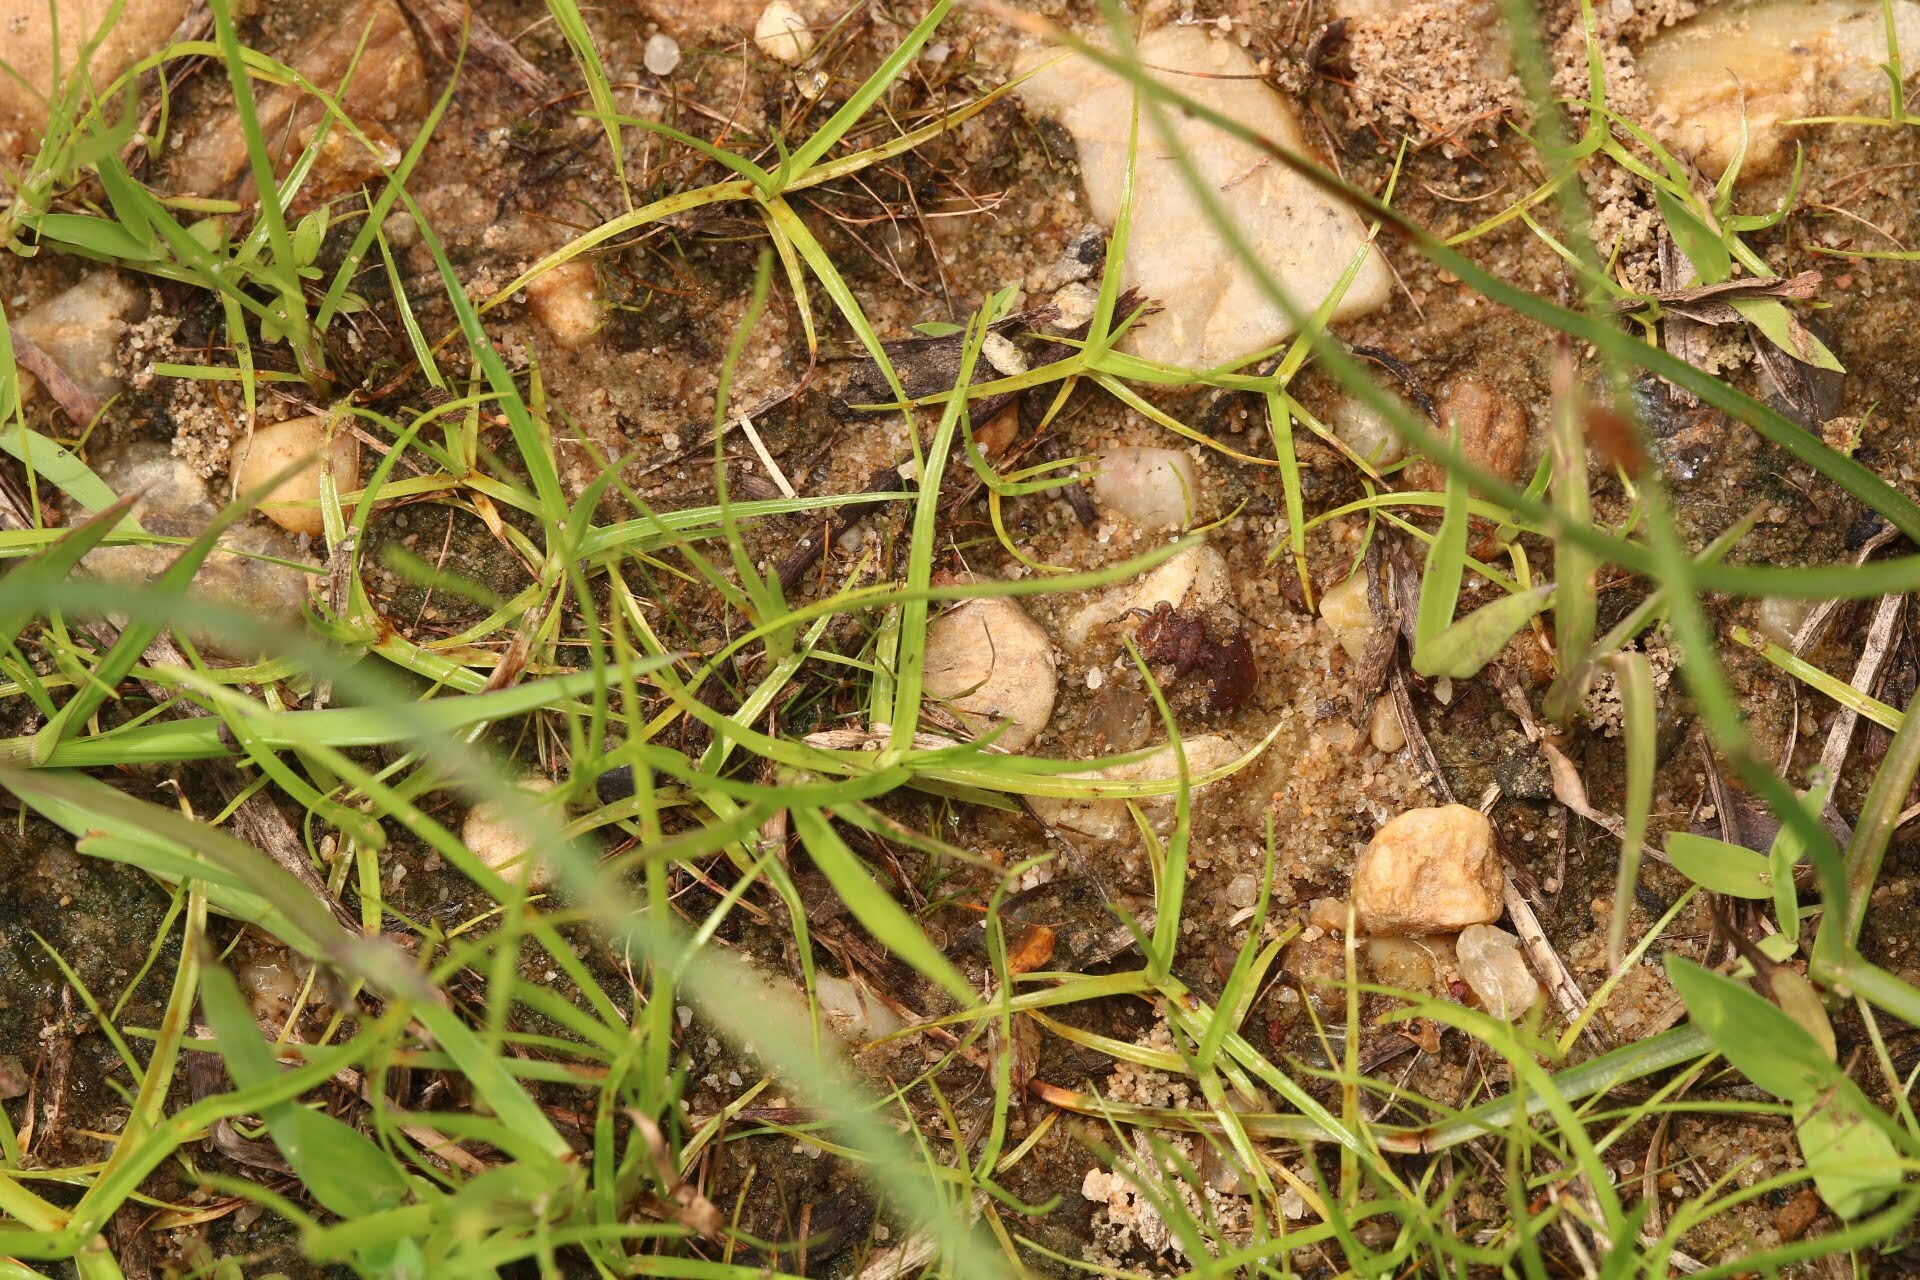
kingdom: Animalia
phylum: Arthropoda
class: Insecta
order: Hemiptera
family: Gelastocoridae
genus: Gelastocoris
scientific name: Gelastocoris oculatus
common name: Toad bug
